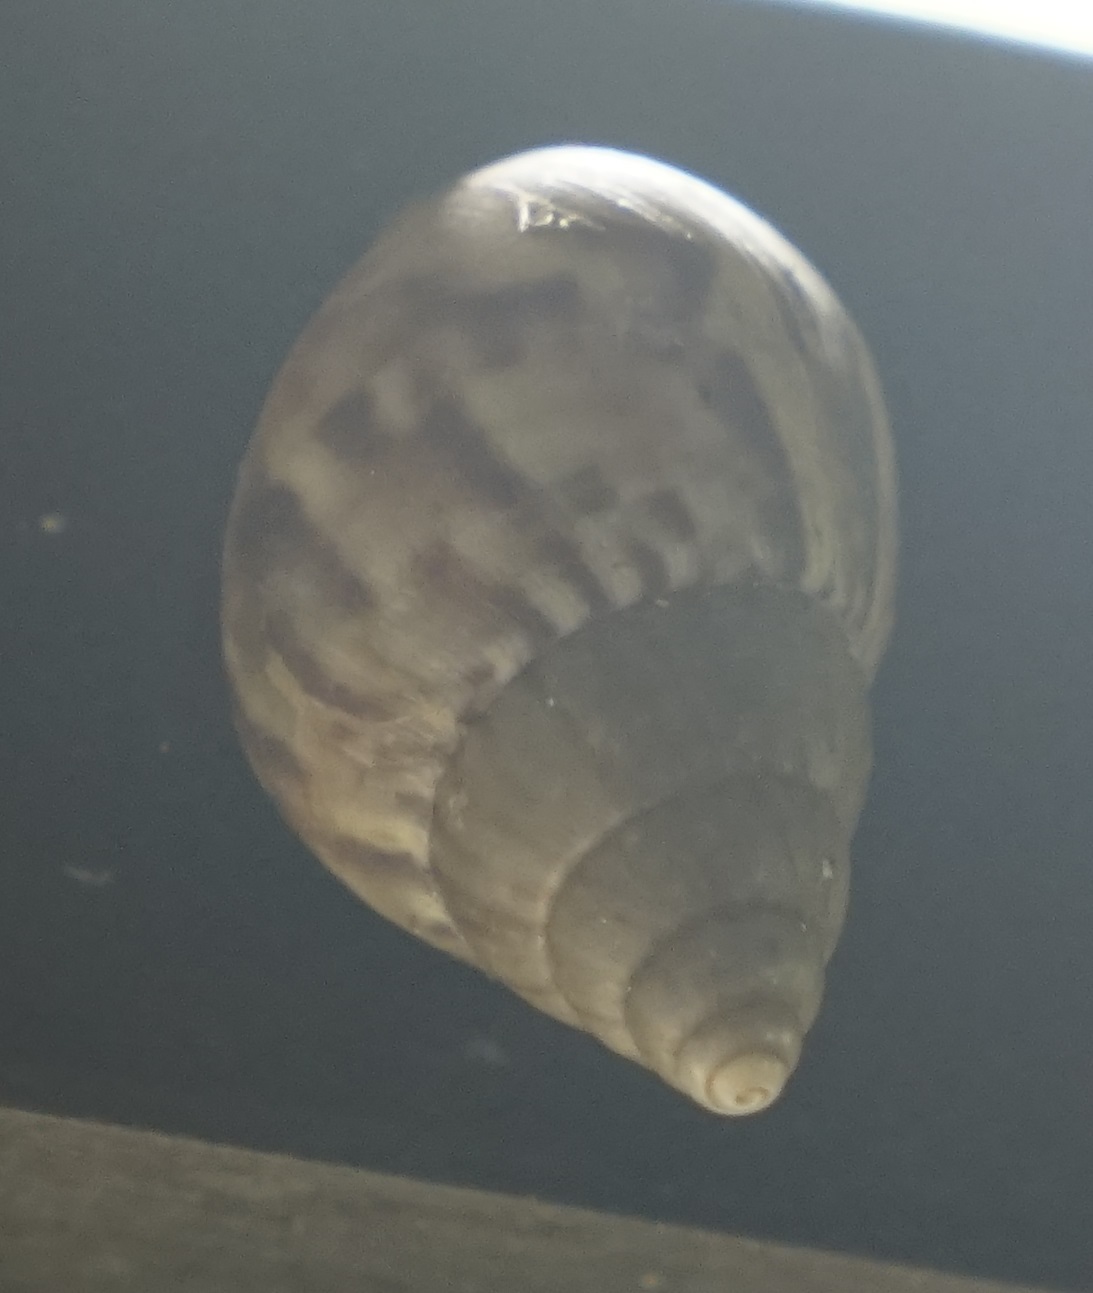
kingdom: Animalia
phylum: Mollusca
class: Gastropoda
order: Stylommatophora
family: Achatinidae
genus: Lissachatina
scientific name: Lissachatina fulica
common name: Giant african snail
